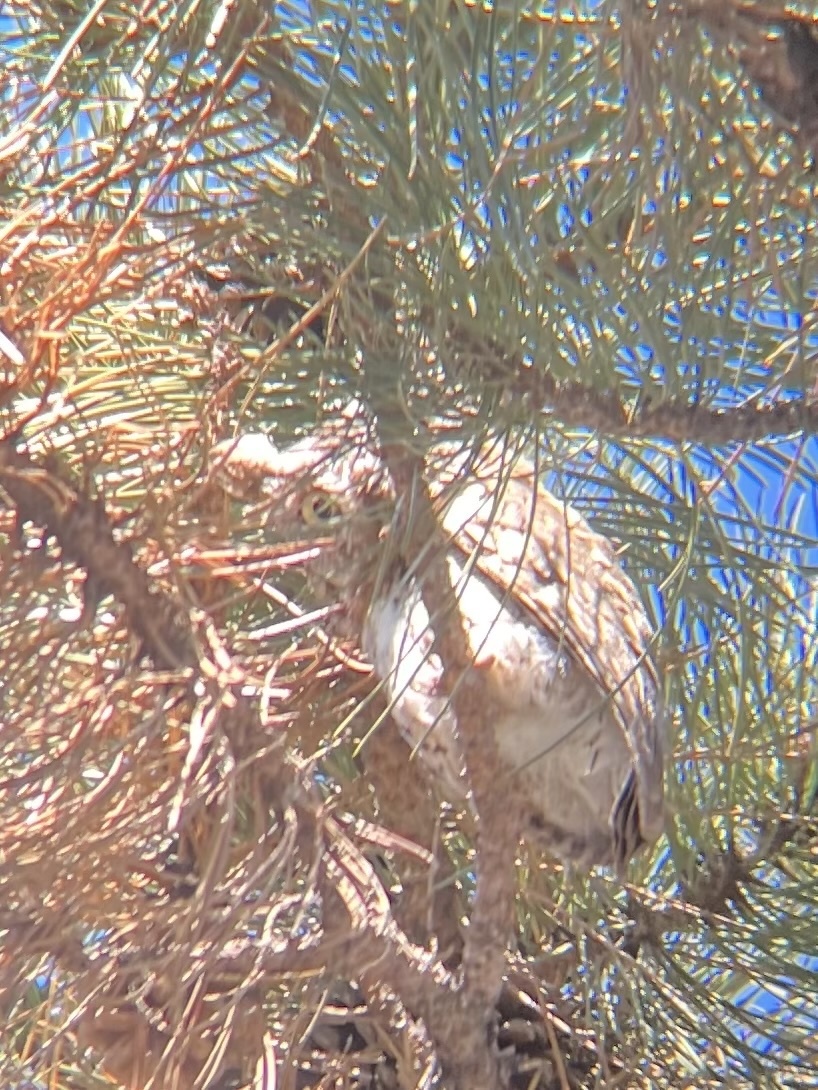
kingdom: Animalia
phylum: Chordata
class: Aves
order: Strigiformes
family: Strigidae
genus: Megascops
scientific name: Megascops asio
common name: Eastern screech-owl
